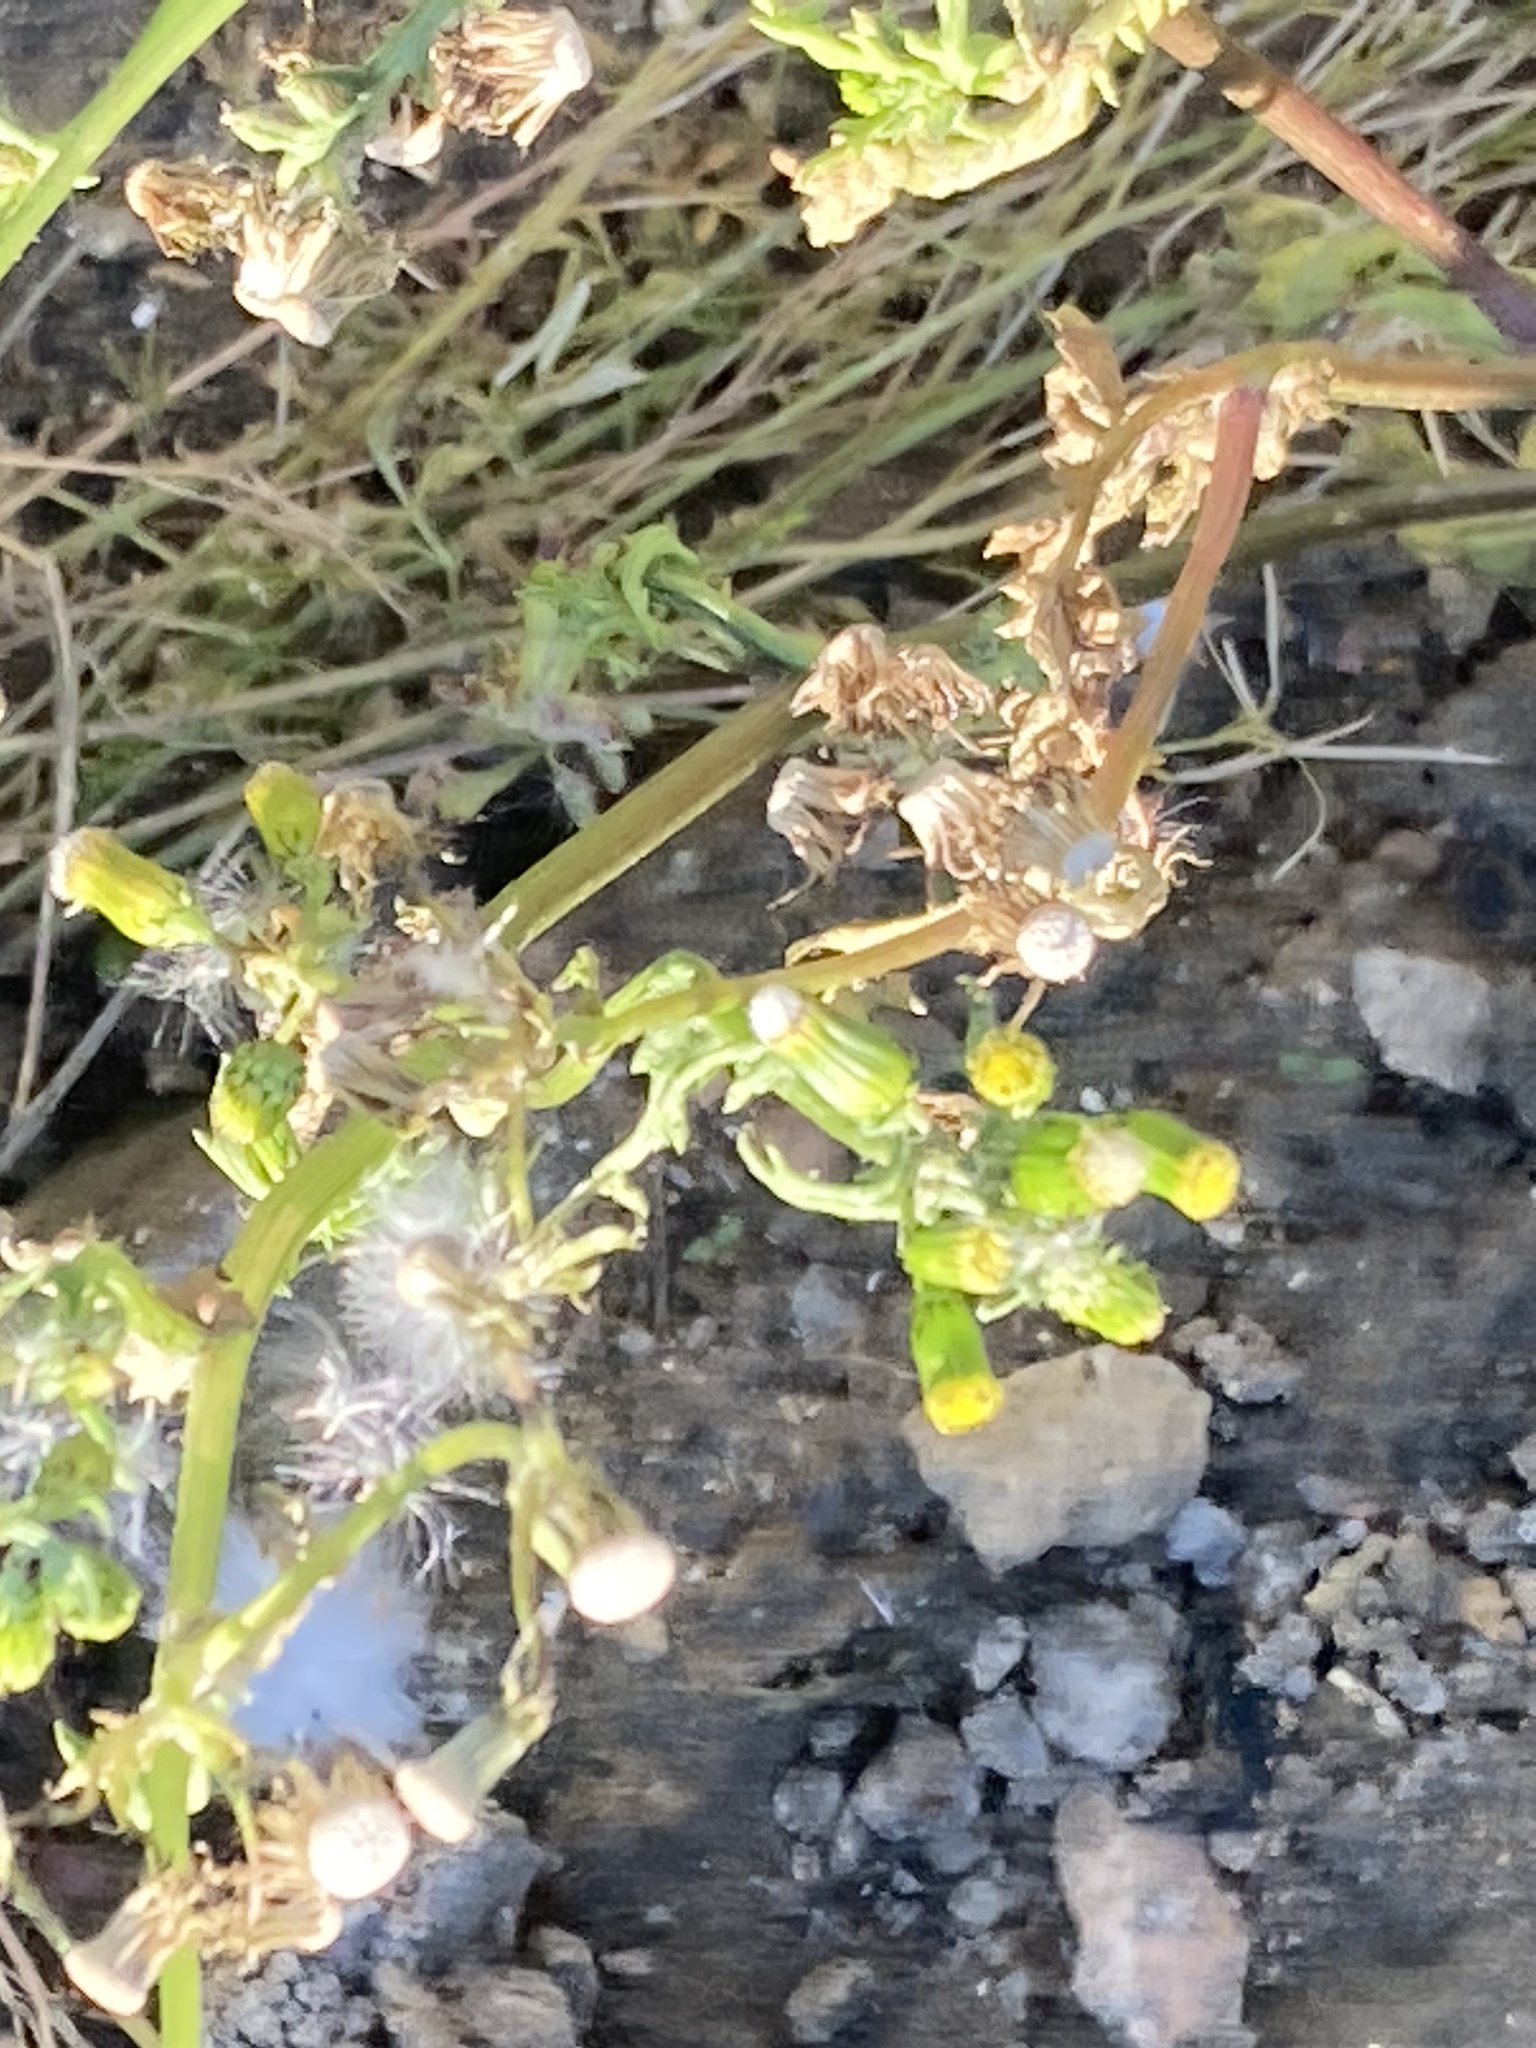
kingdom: Plantae
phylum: Tracheophyta
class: Magnoliopsida
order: Asterales
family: Asteraceae
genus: Senecio
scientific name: Senecio vulgaris
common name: Old-man-in-the-spring
